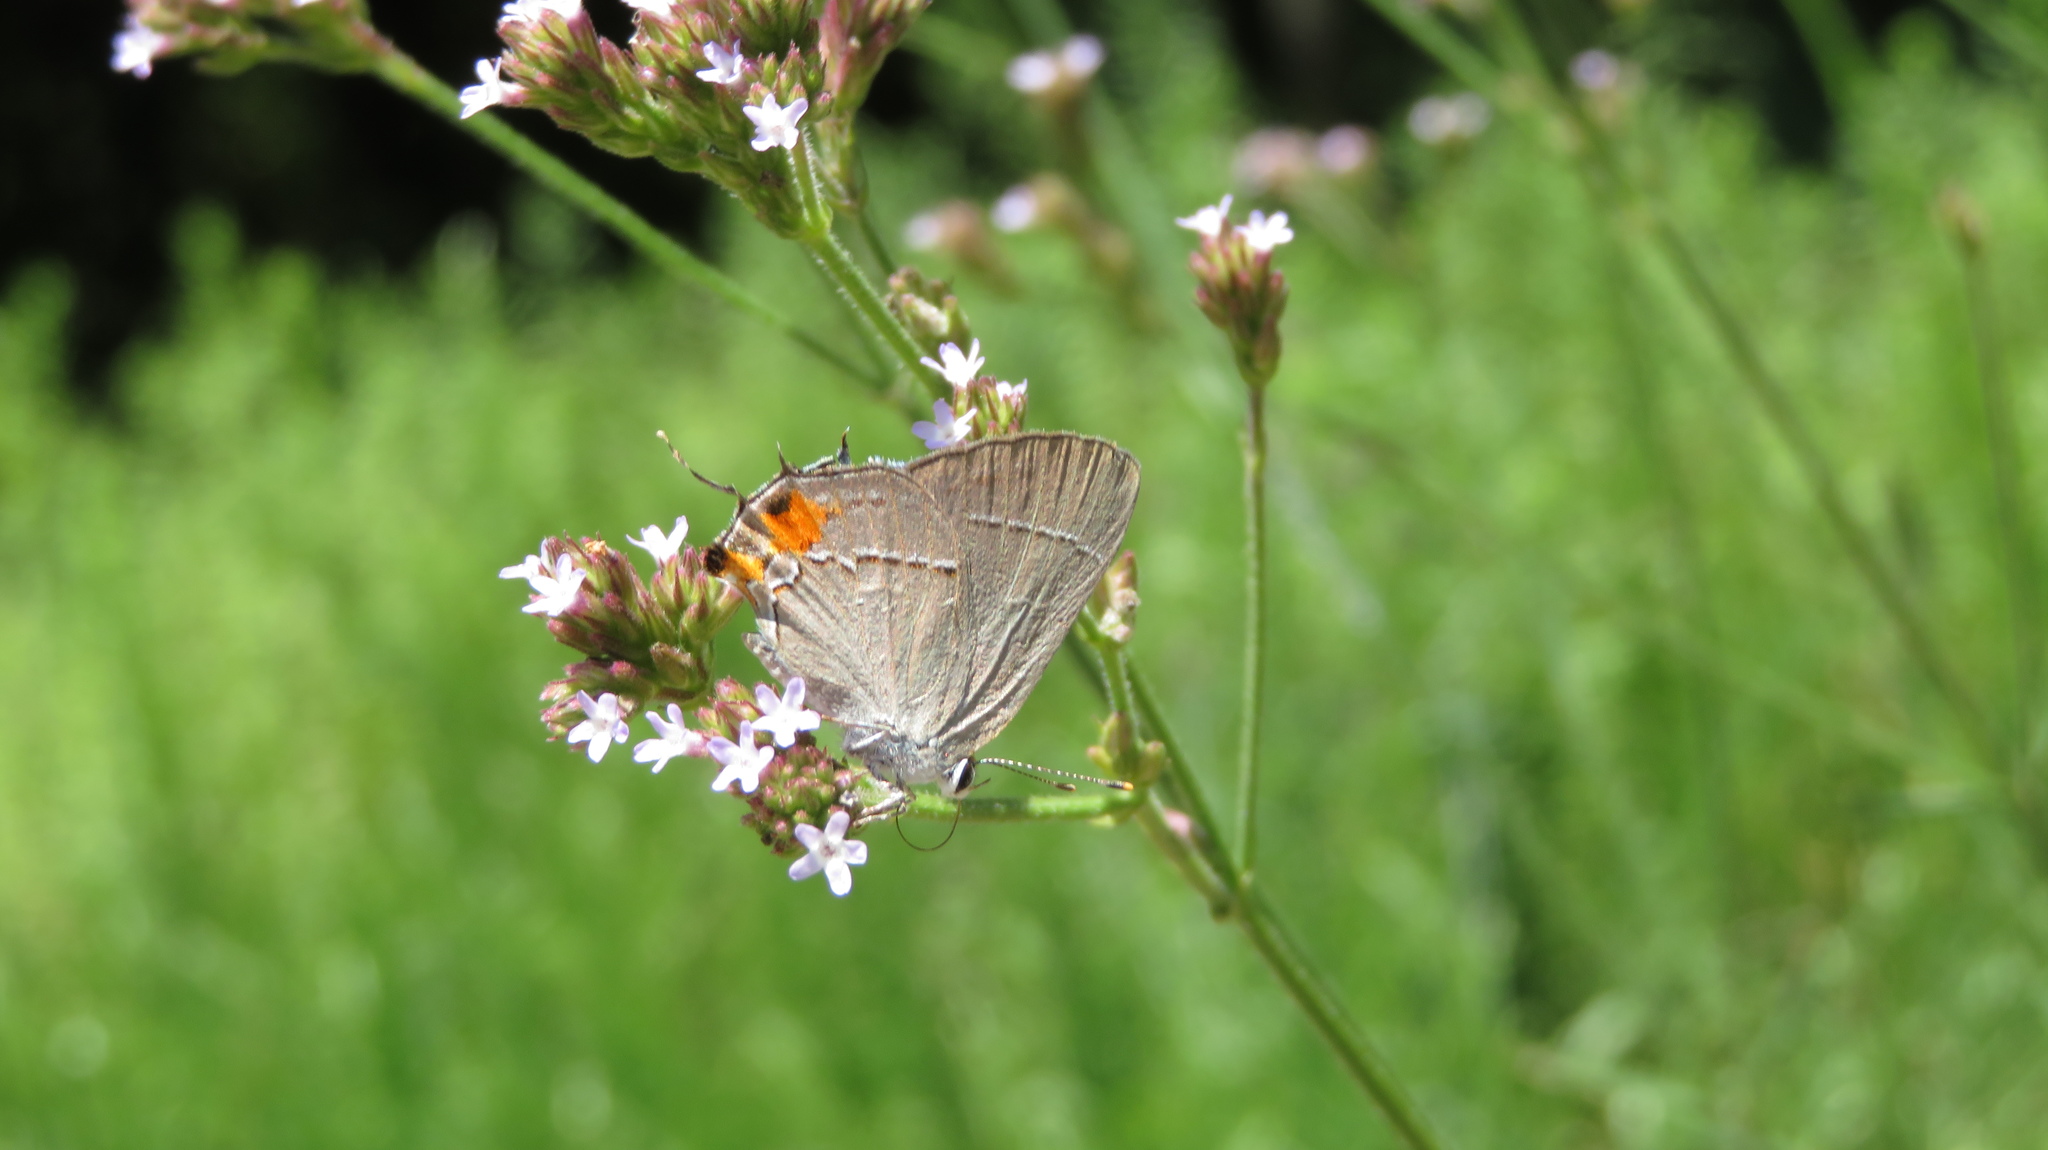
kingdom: Animalia
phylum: Arthropoda
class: Insecta
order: Lepidoptera
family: Lycaenidae
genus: Strymon
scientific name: Strymon melinus
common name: Gray hairstreak
